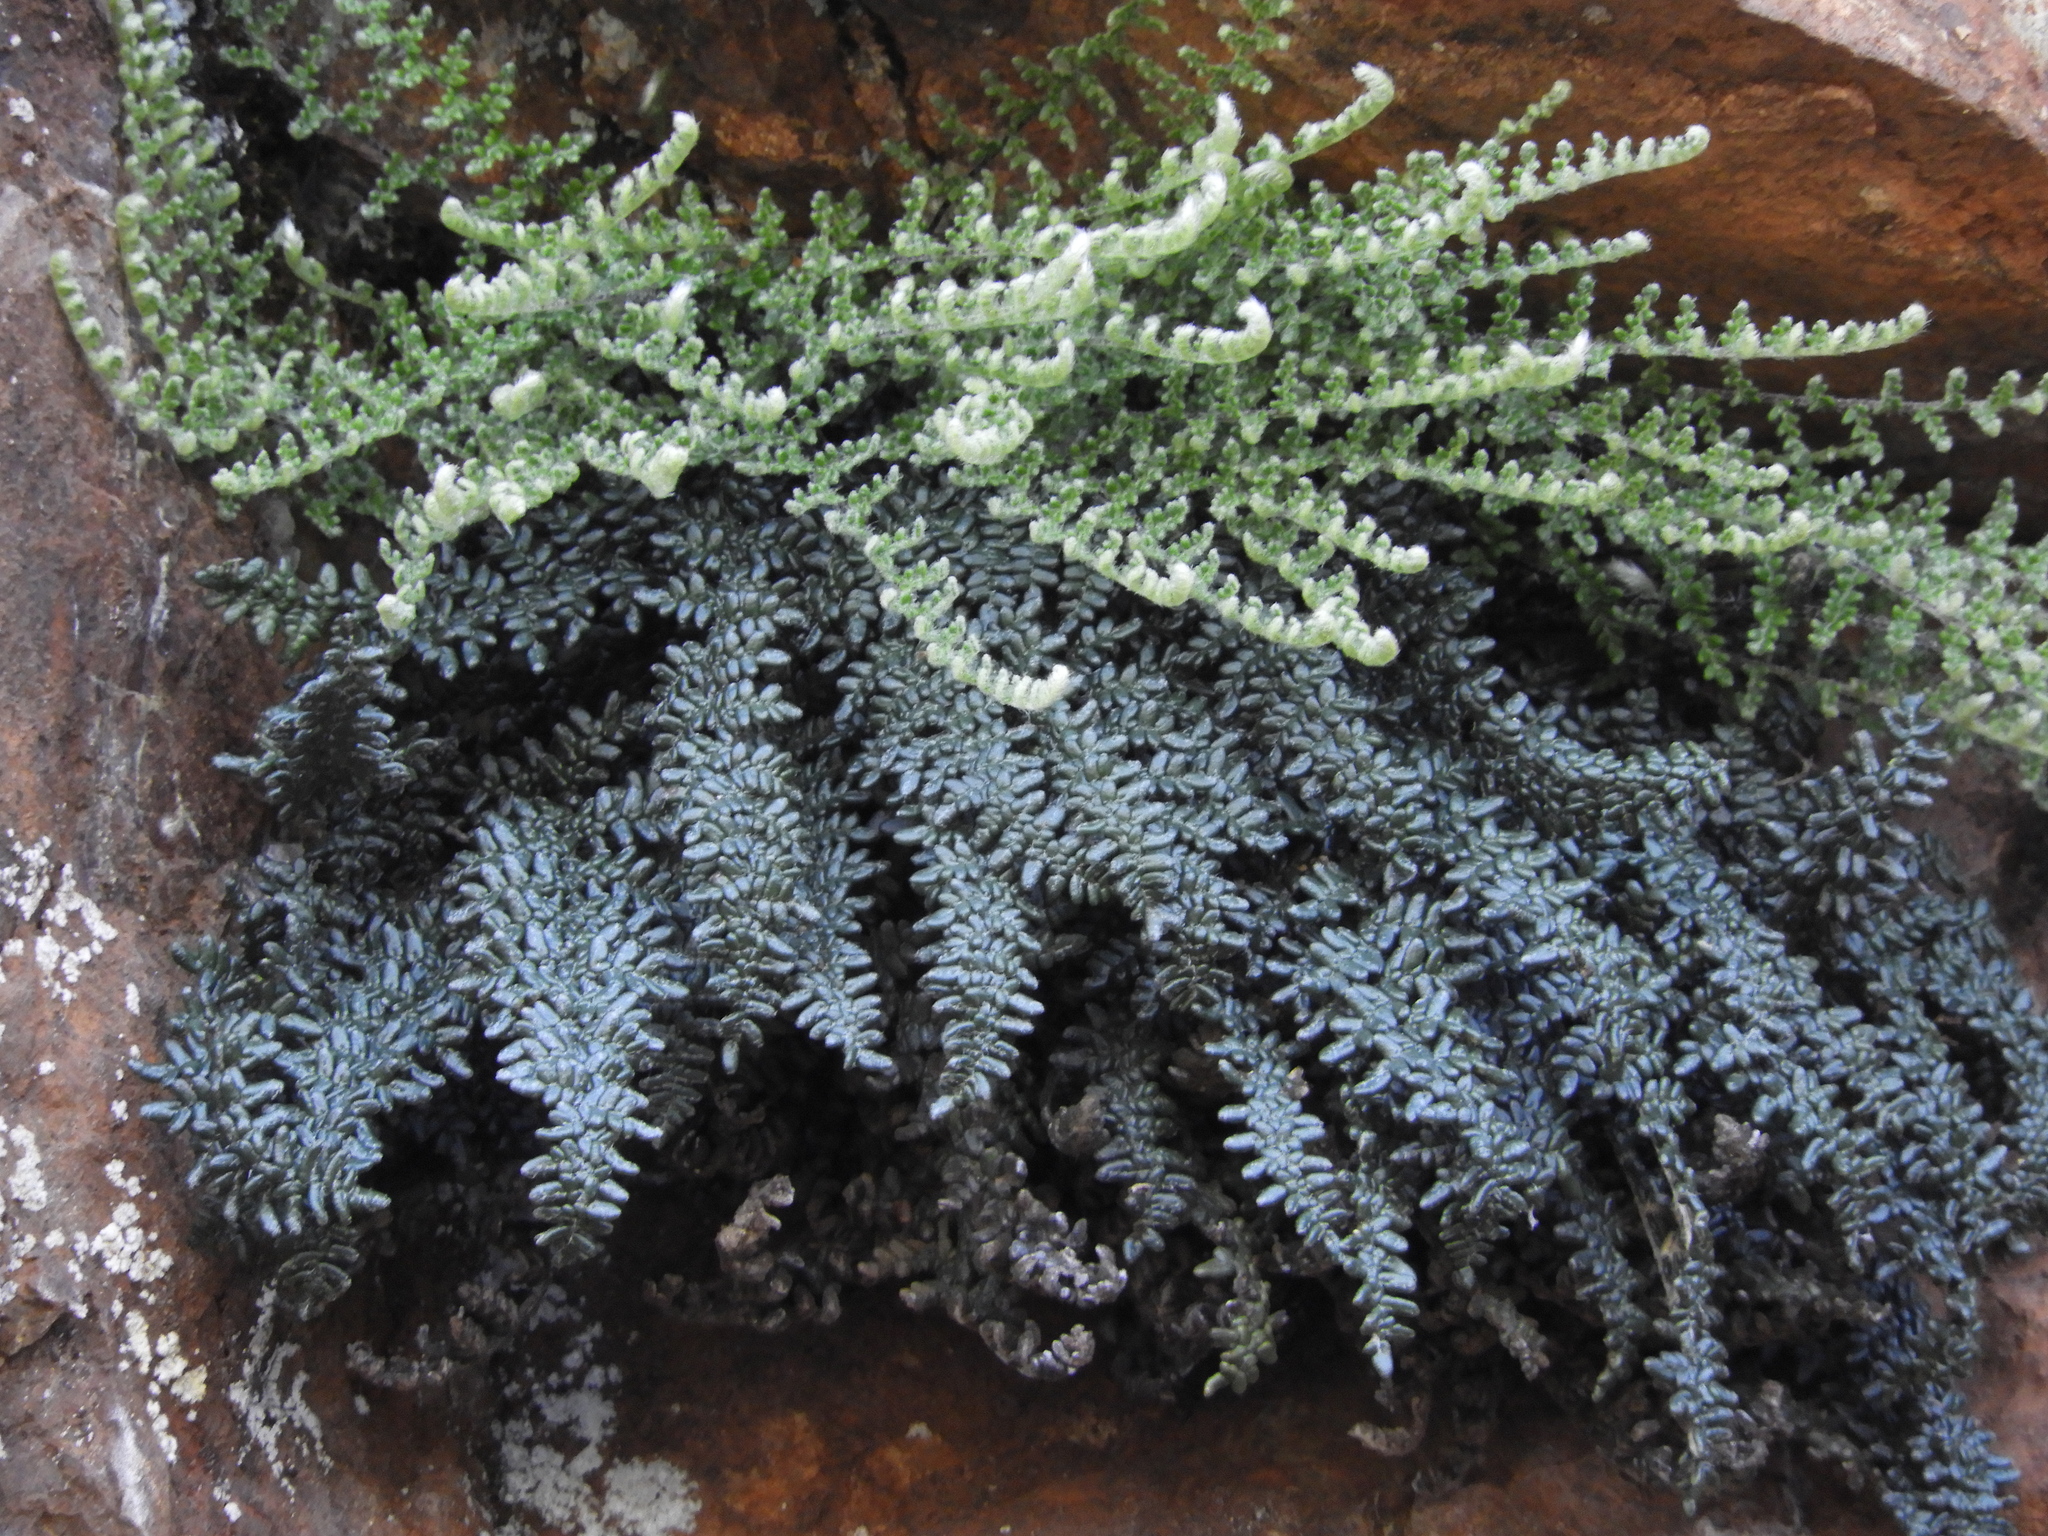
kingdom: Plantae
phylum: Tracheophyta
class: Polypodiopsida
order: Polypodiales
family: Pteridaceae
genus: Myriopteris
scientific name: Myriopteris gracillima
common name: Lace fern
